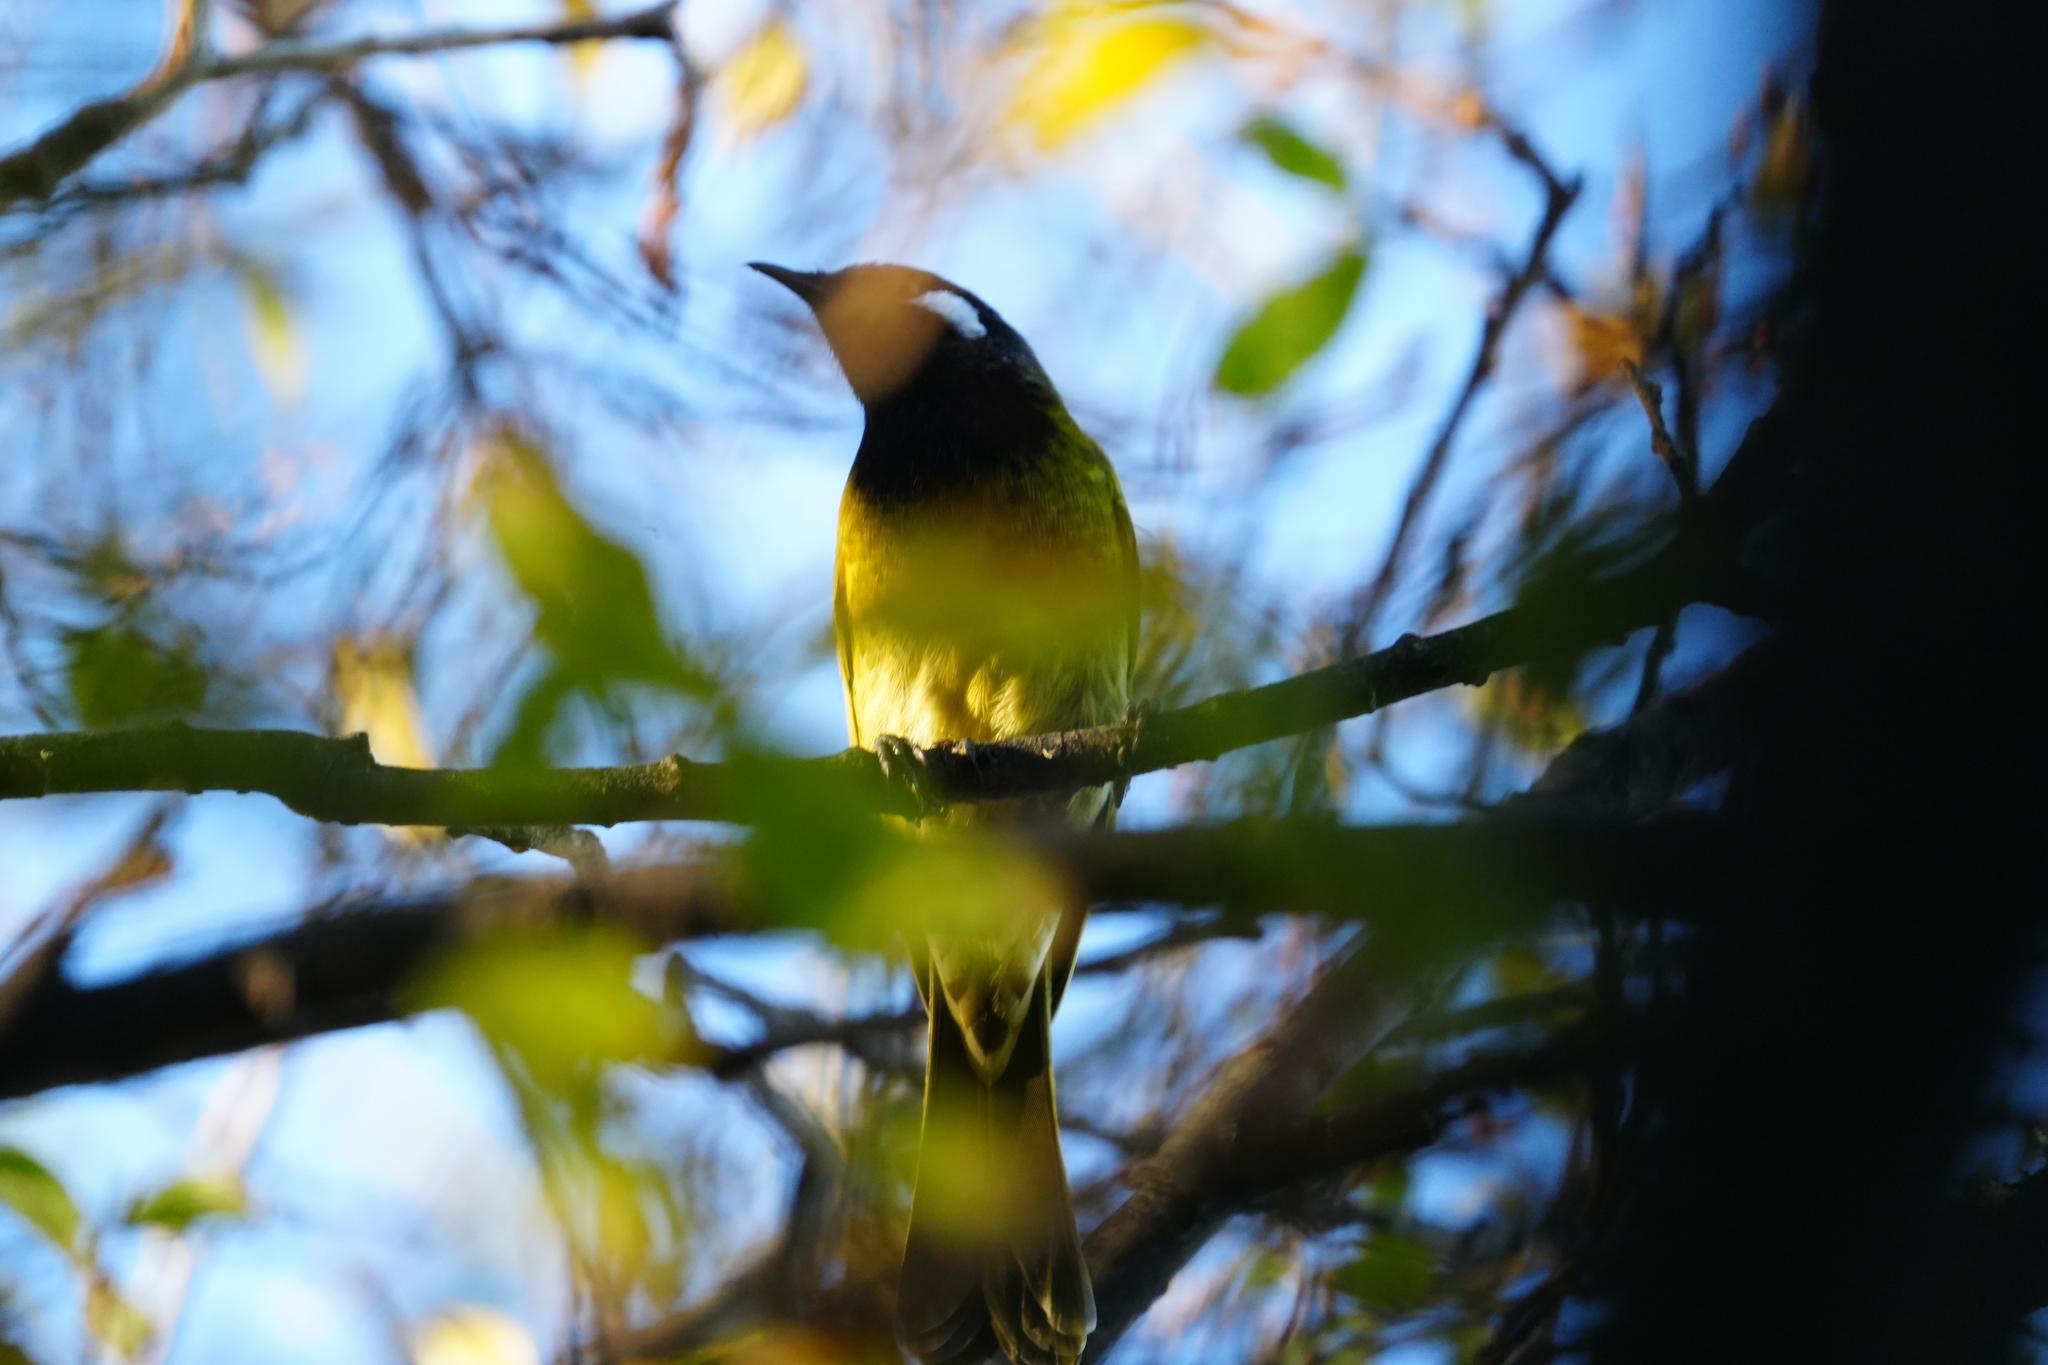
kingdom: Animalia
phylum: Chordata
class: Aves
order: Passeriformes
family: Meliphagidae
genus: Nesoptilotis
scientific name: Nesoptilotis leucotis
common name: White-eared honeyeater
